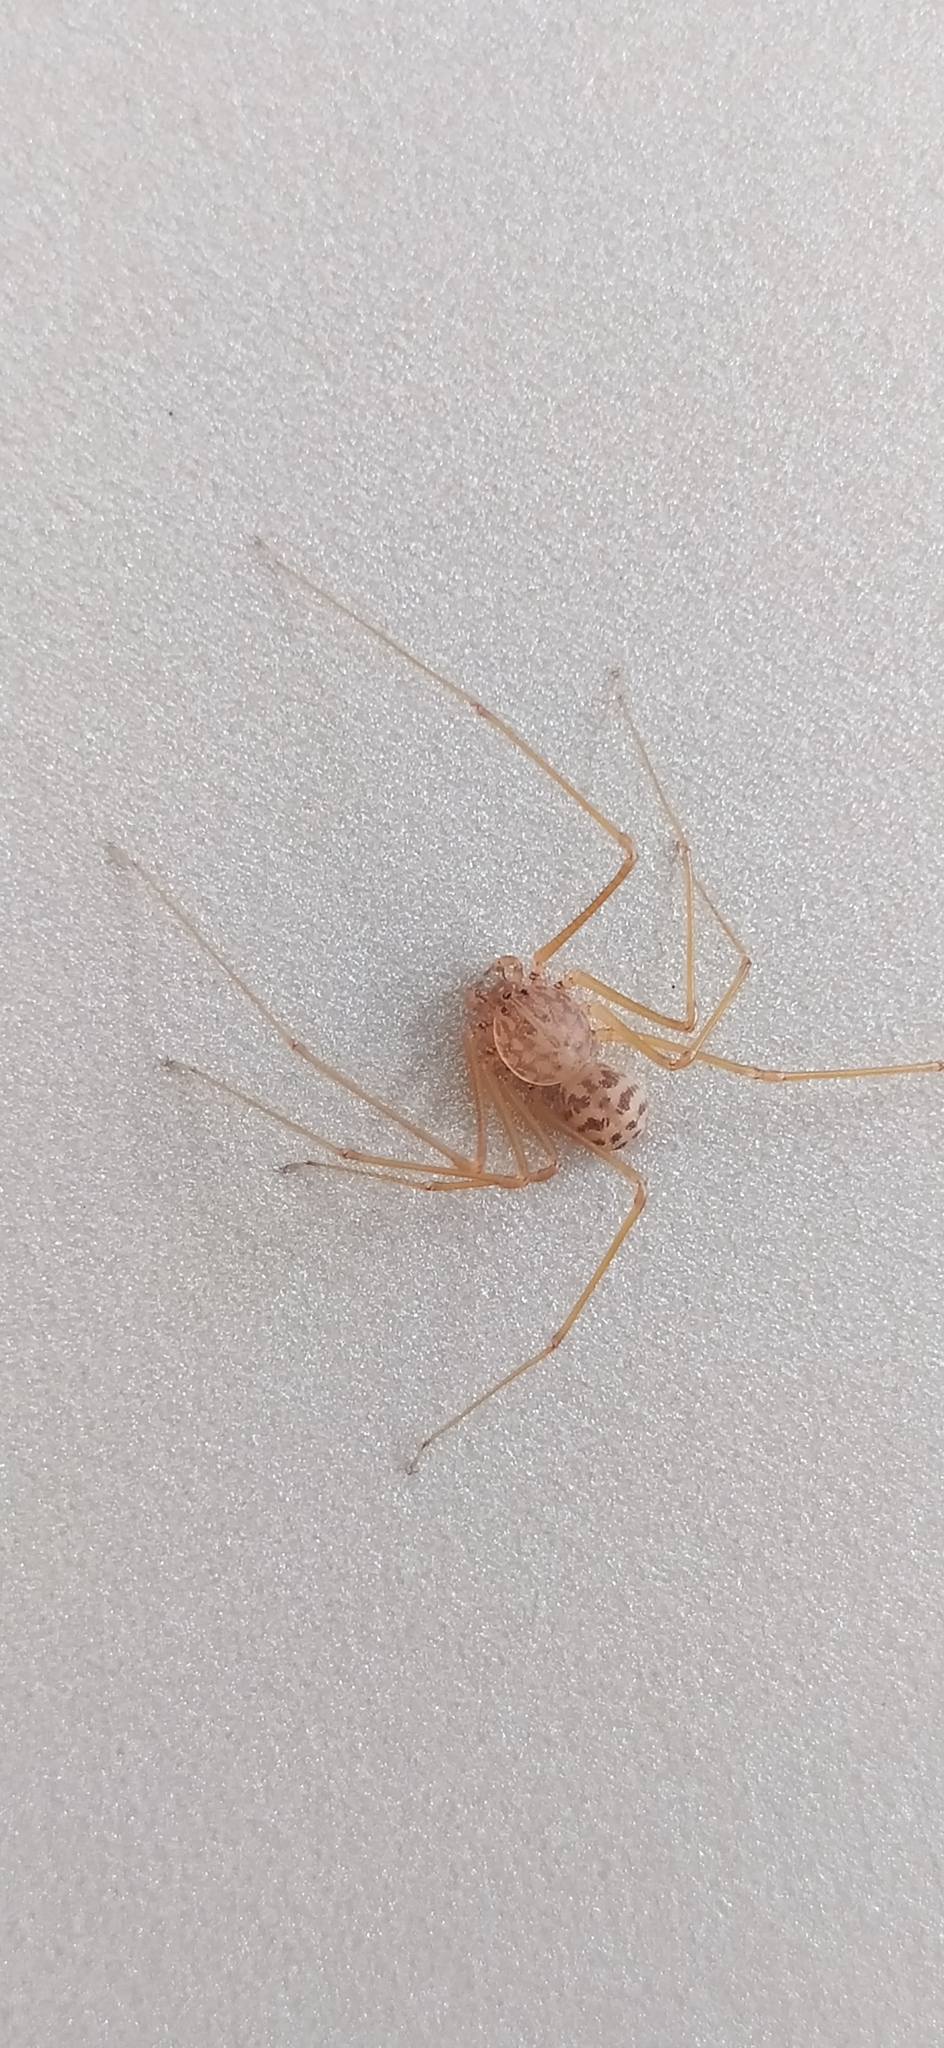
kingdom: Animalia
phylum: Arthropoda
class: Arachnida
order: Araneae
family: Scytodidae
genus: Scytodes
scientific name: Scytodes univittata
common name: Spitting spider
